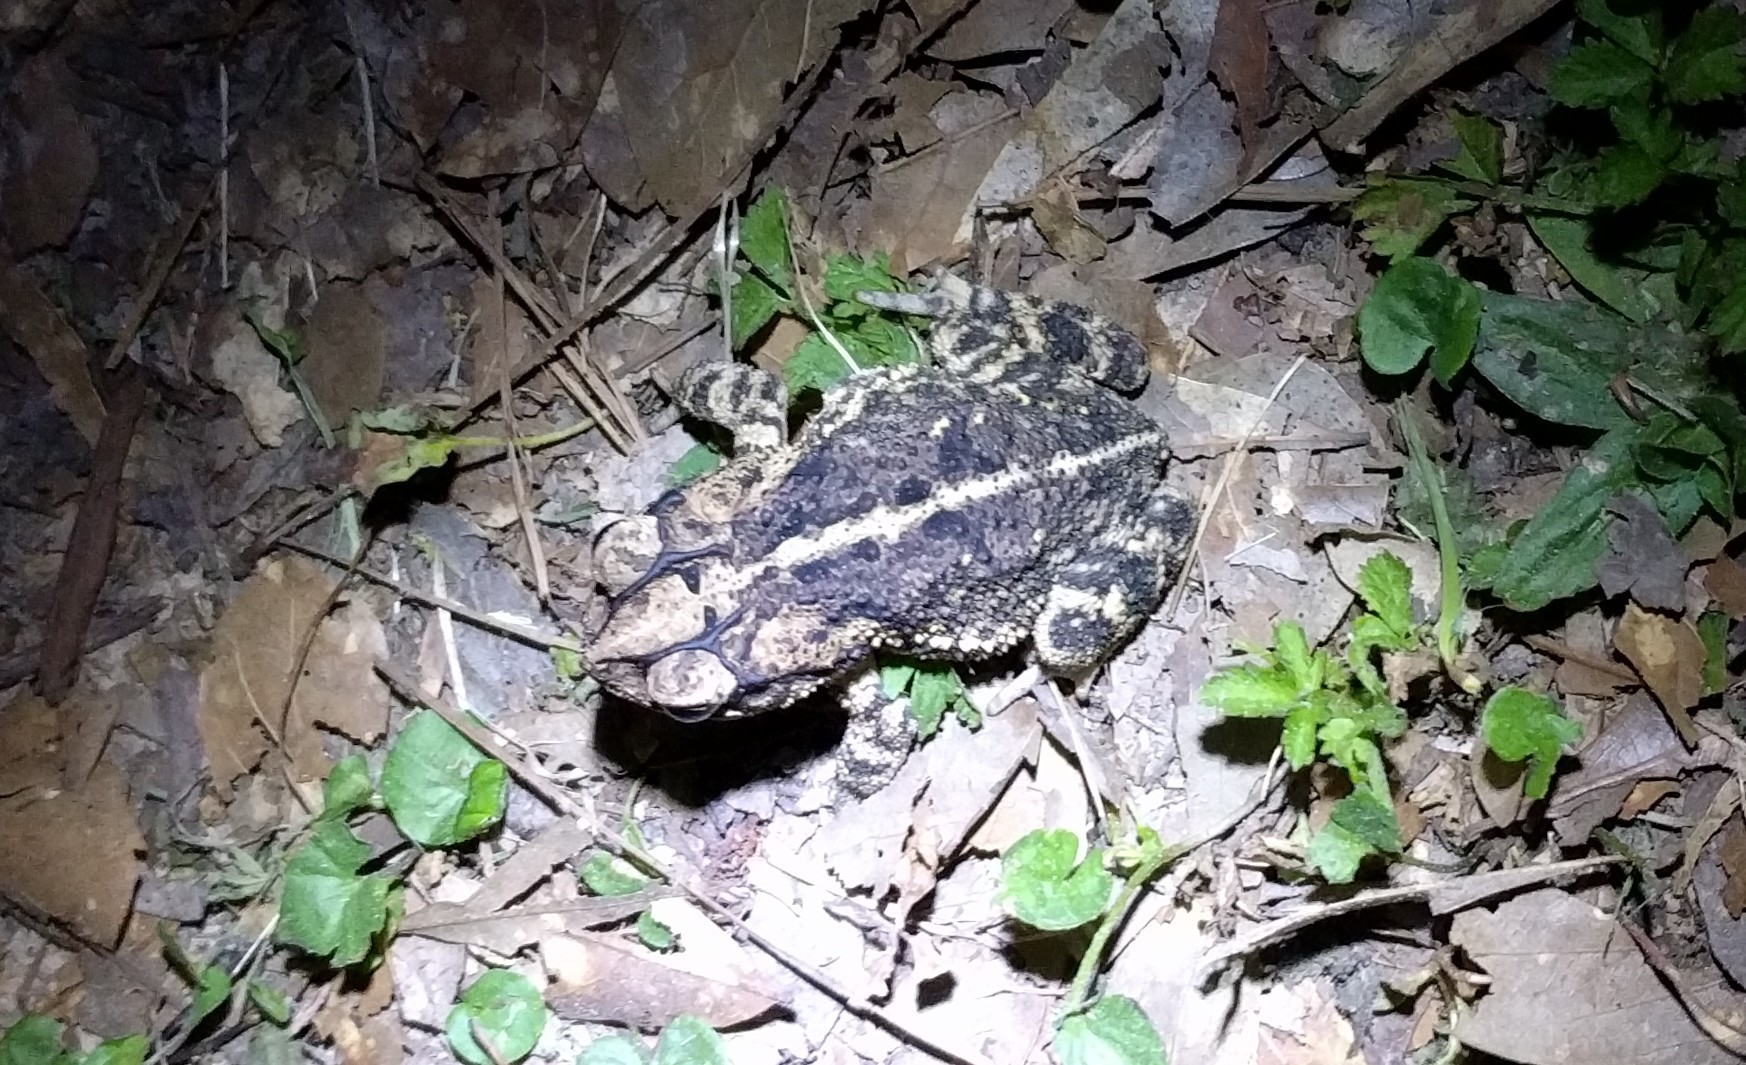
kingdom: Animalia
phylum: Chordata
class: Amphibia
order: Anura
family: Bufonidae
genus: Incilius
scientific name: Incilius nebulifer
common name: Gulf coast toad
